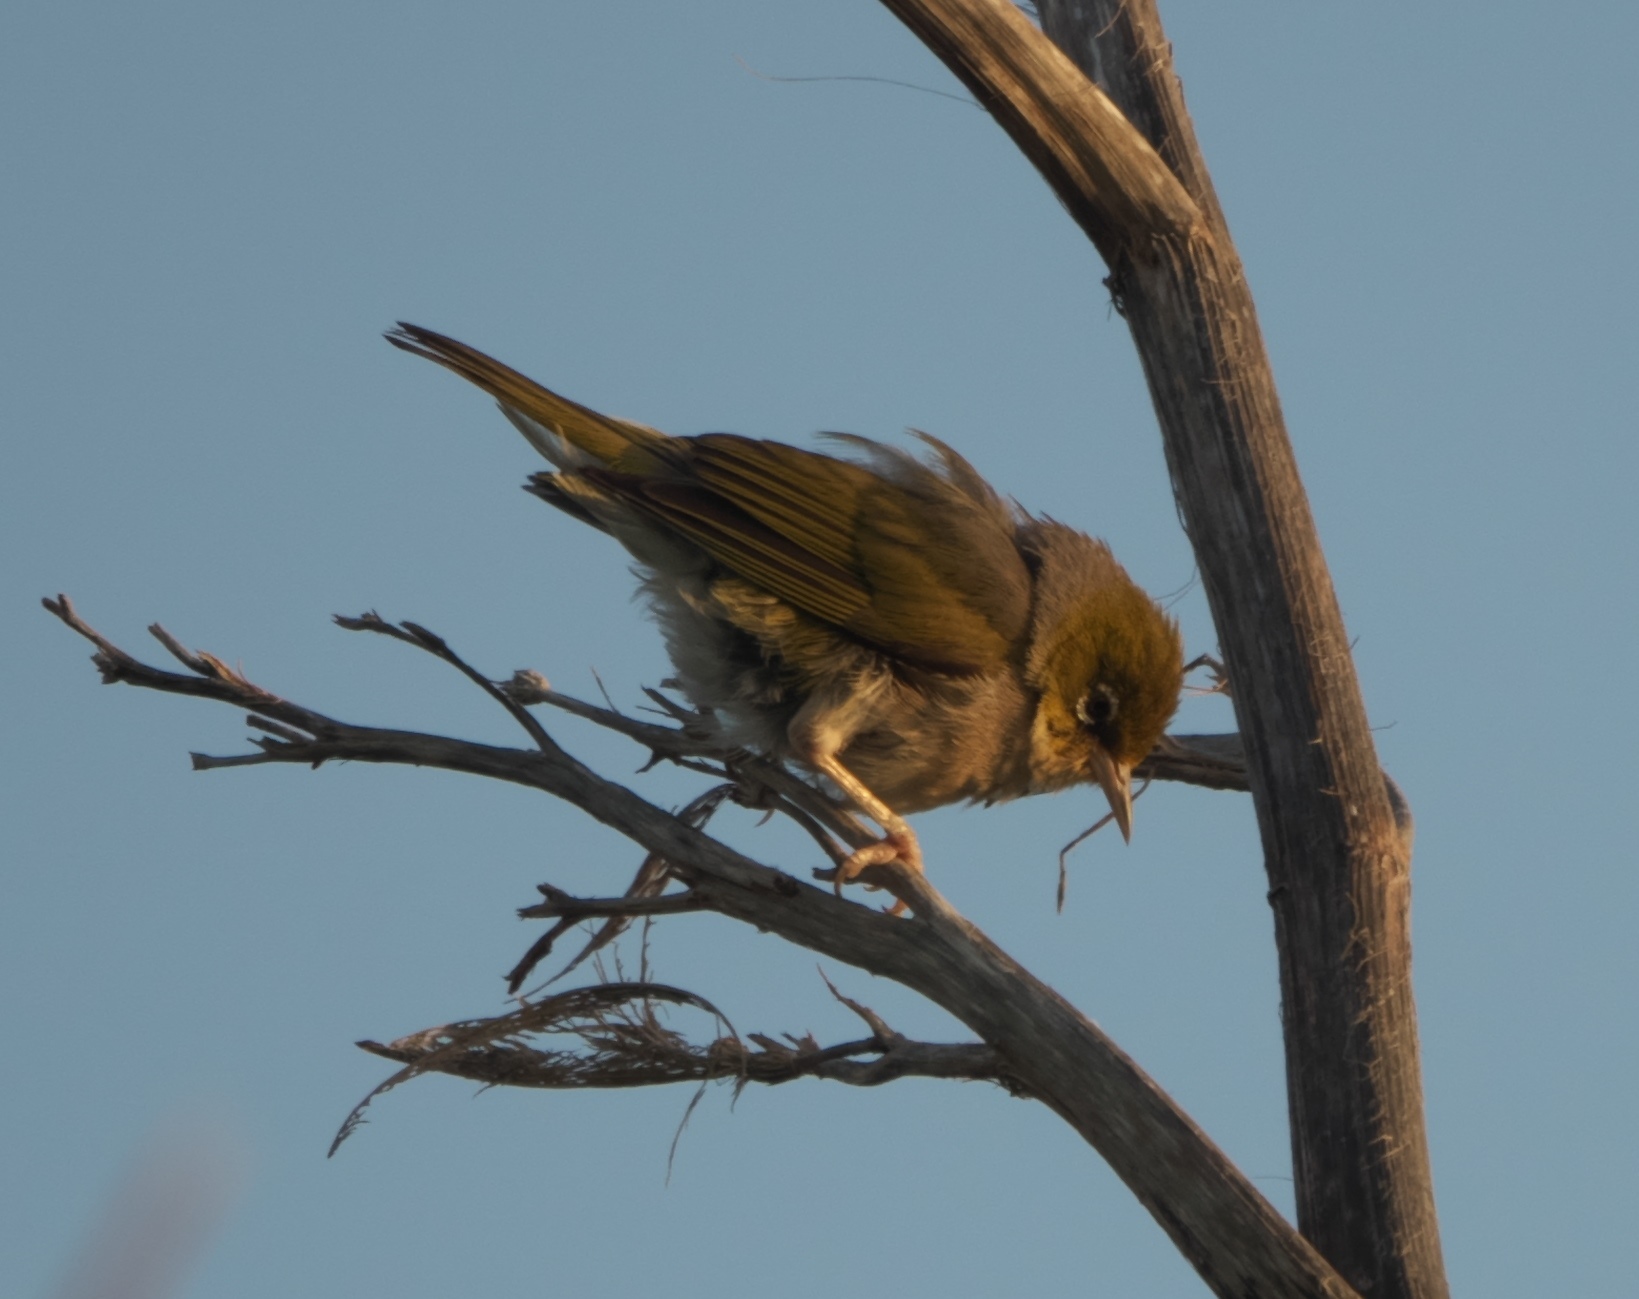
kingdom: Animalia
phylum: Chordata
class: Aves
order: Passeriformes
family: Zosteropidae
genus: Zosterops
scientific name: Zosterops lateralis
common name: Silvereye
